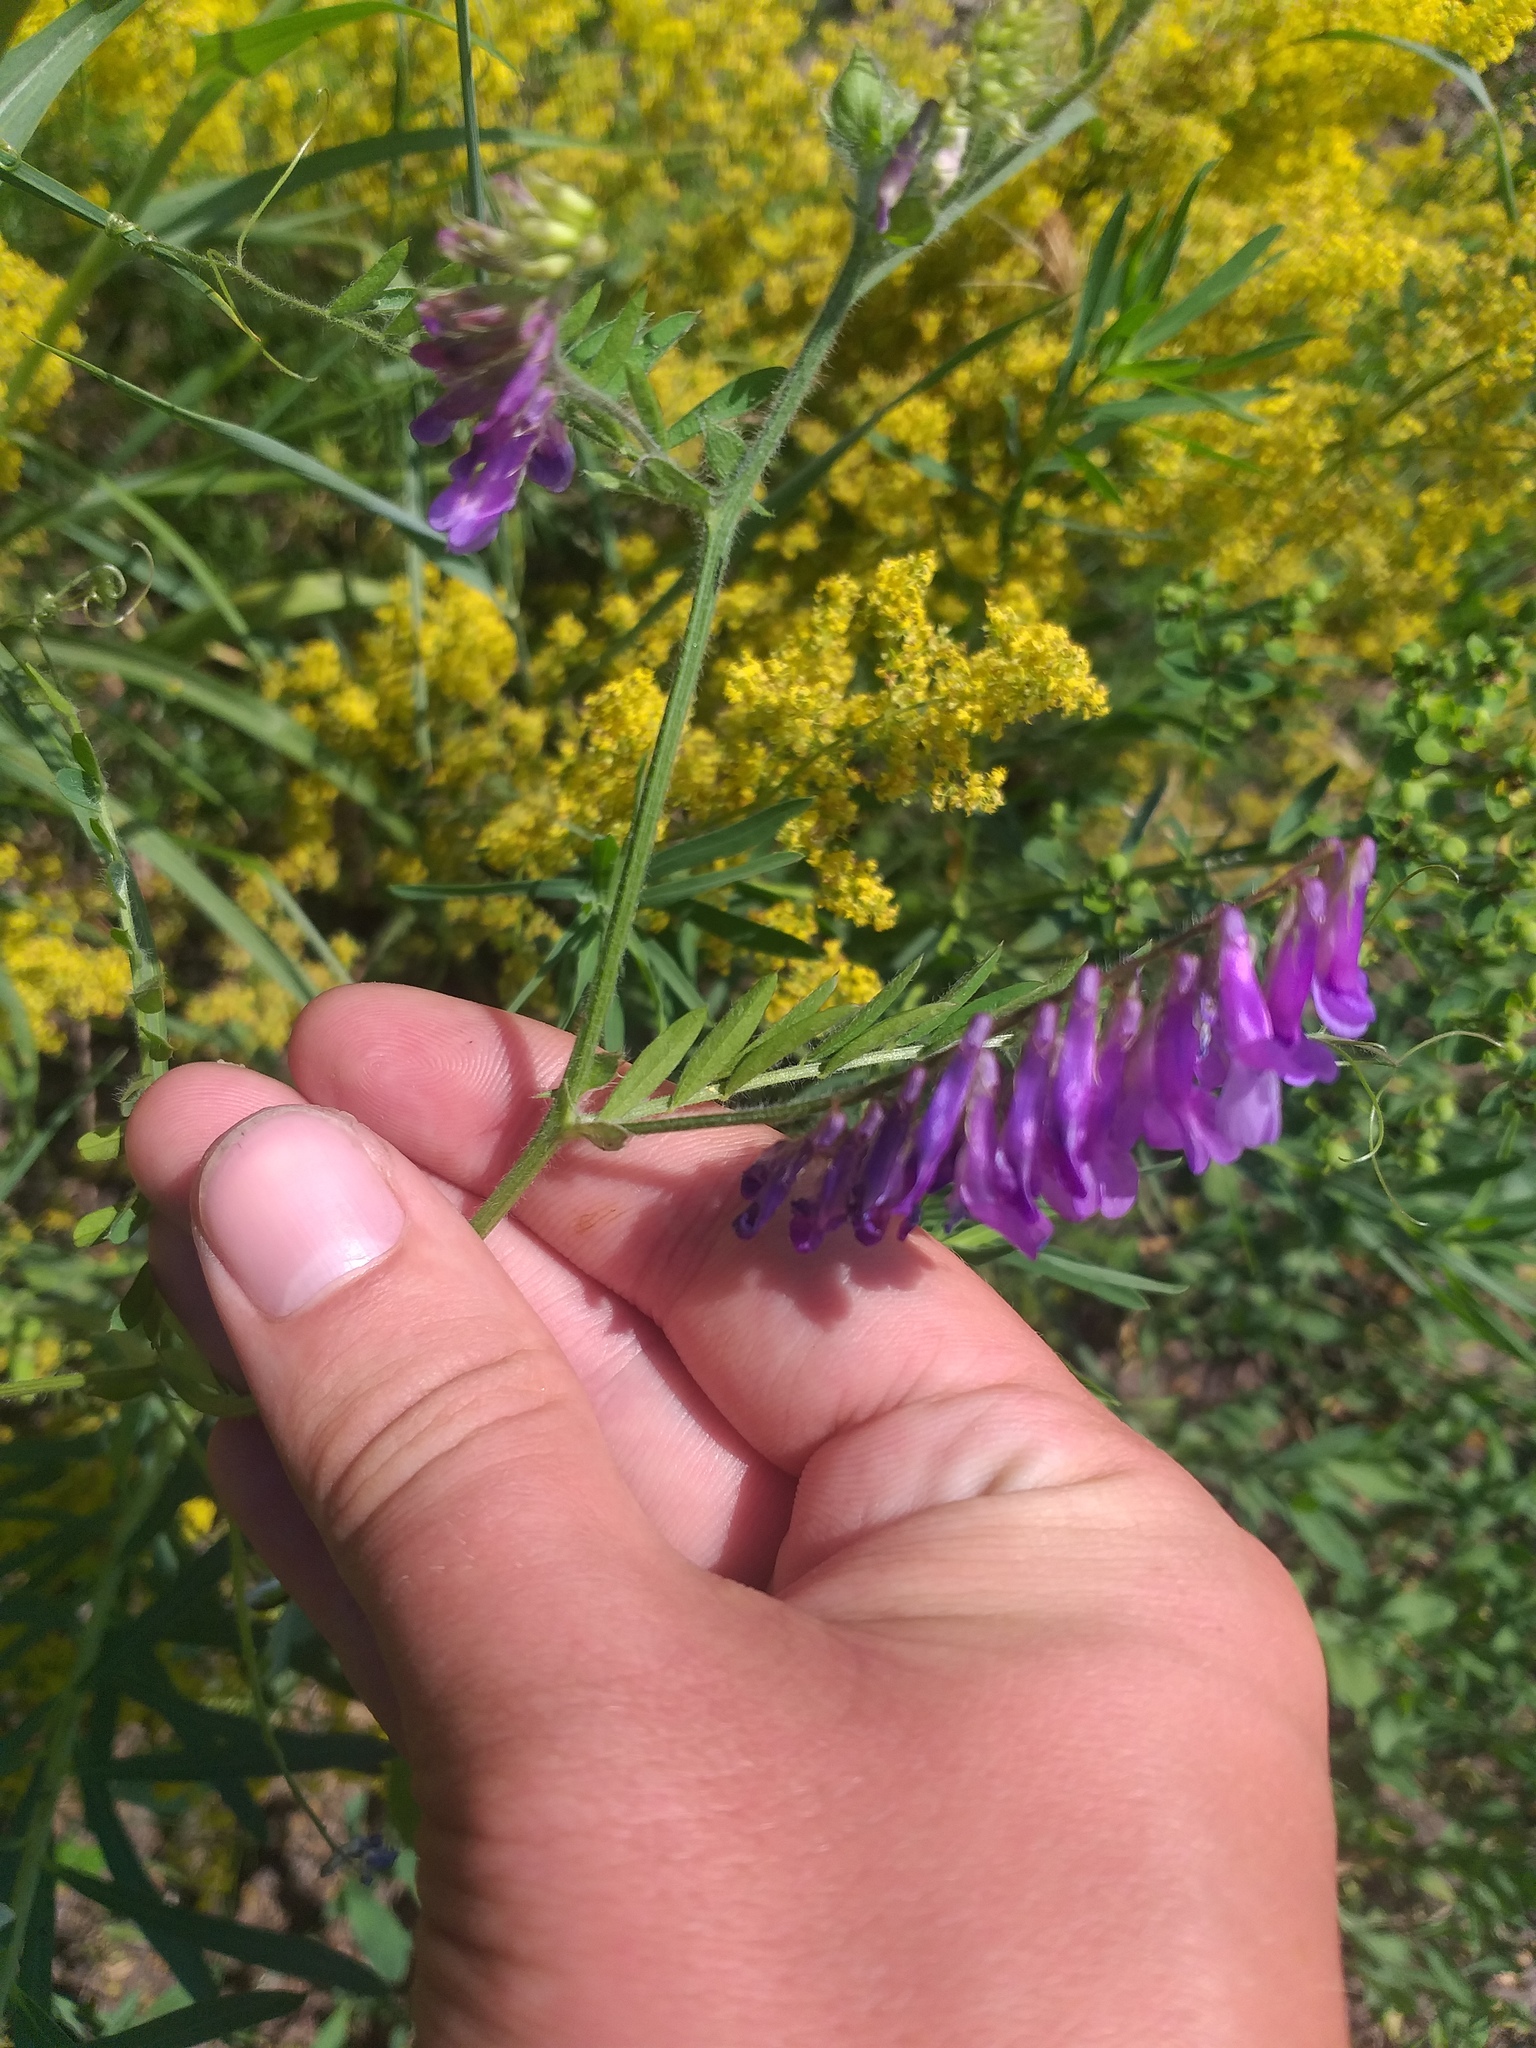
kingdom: Plantae
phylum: Tracheophyta
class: Magnoliopsida
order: Fabales
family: Fabaceae
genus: Vicia
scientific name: Vicia villosa
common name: Fodder vetch
